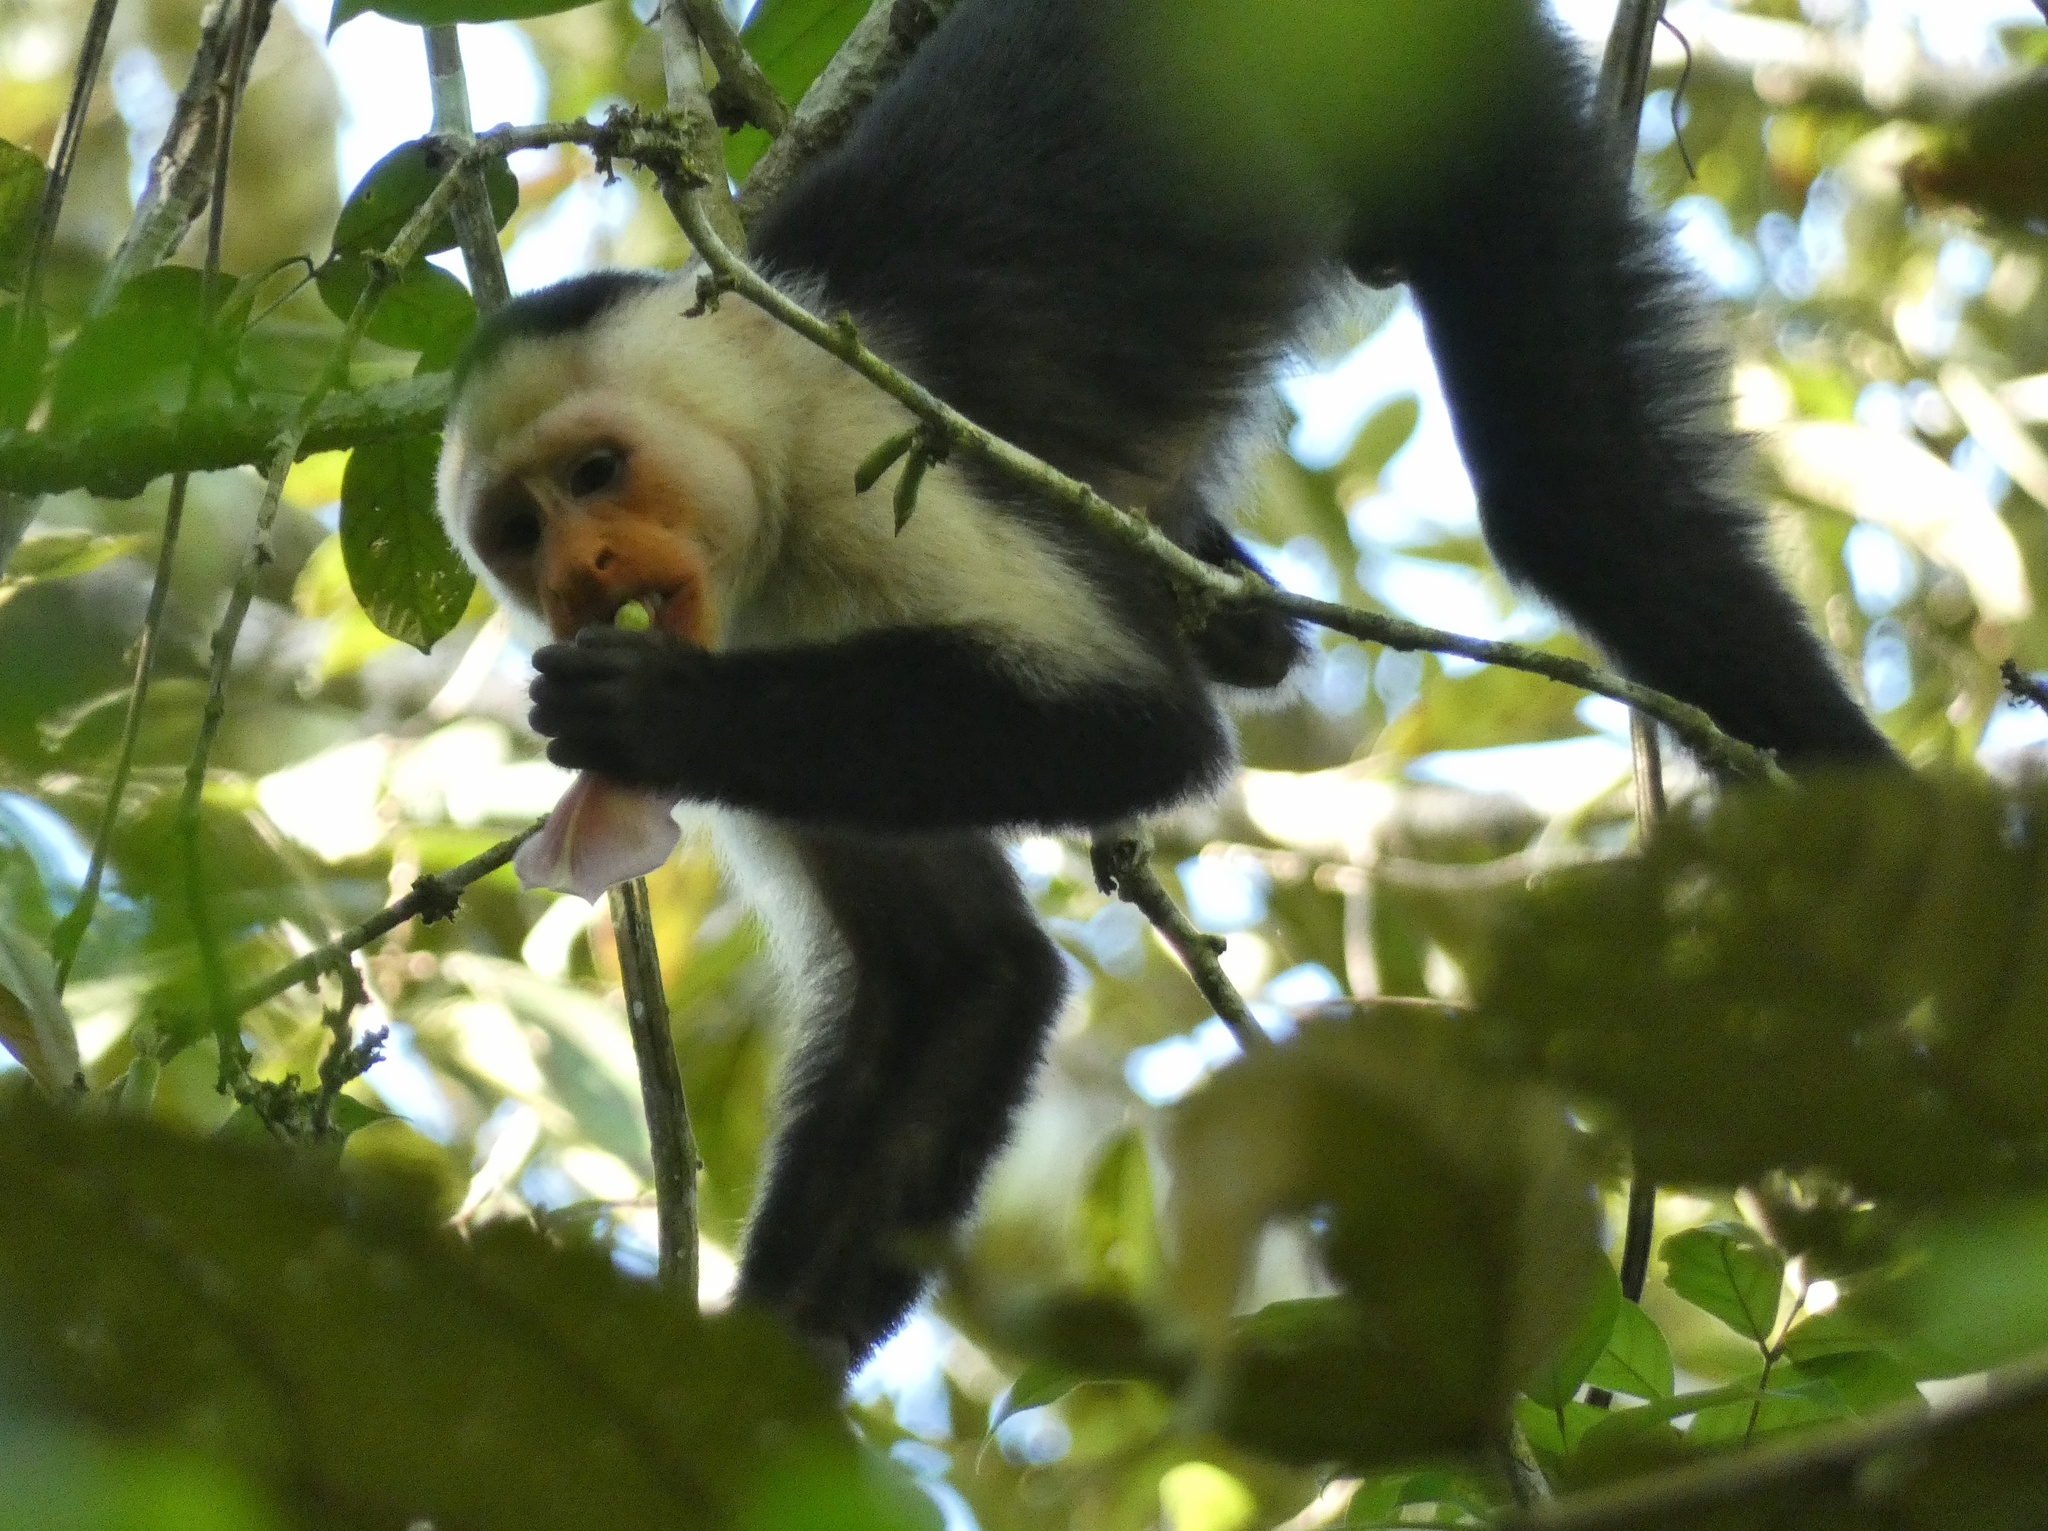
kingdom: Animalia
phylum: Chordata
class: Mammalia
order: Primates
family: Cebidae
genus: Cebus
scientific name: Cebus imitator
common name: Panamanian white-faced capuchin
